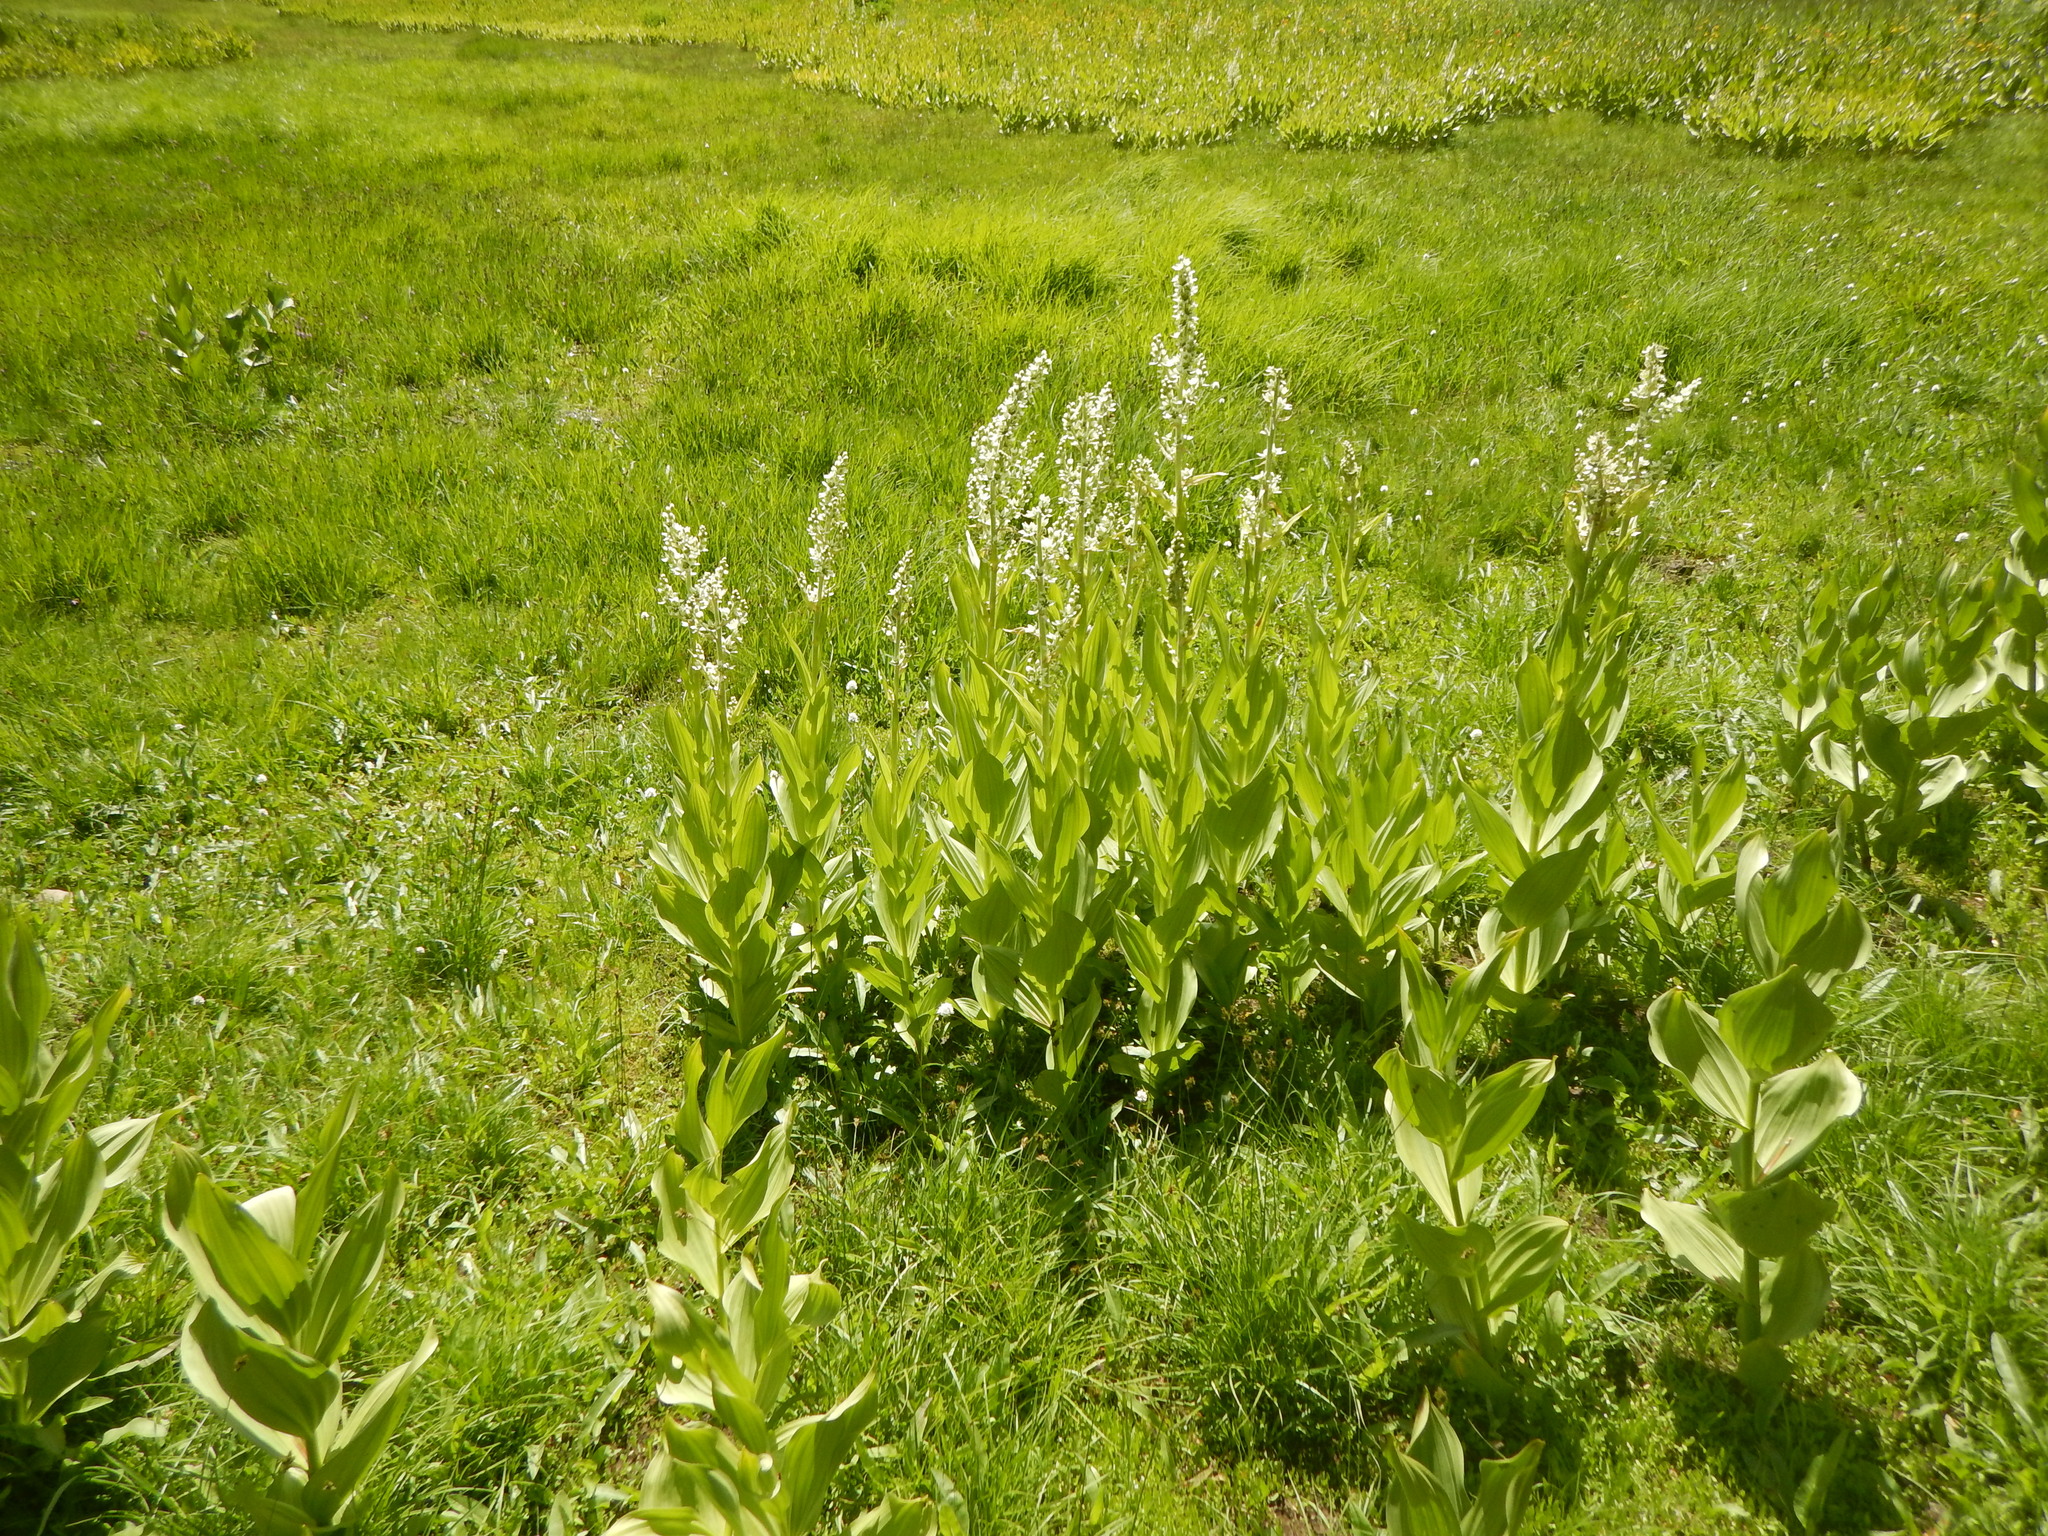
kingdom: Plantae
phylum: Tracheophyta
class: Liliopsida
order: Liliales
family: Melanthiaceae
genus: Veratrum
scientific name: Veratrum californicum
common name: California veratrum
